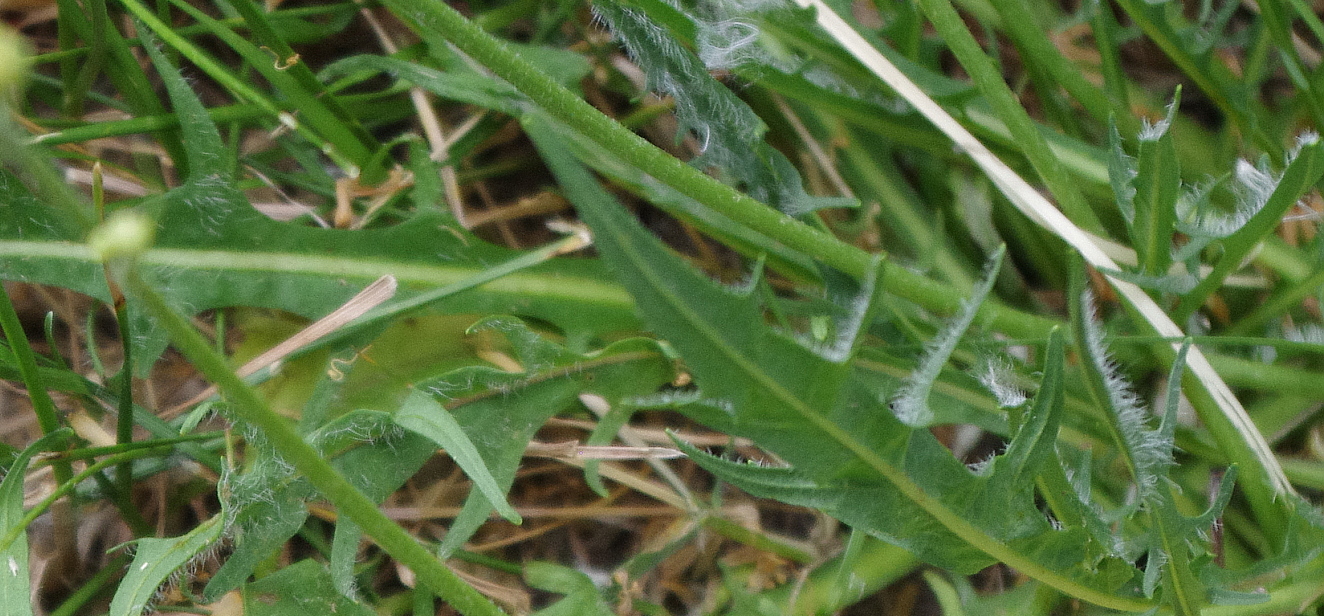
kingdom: Plantae
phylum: Tracheophyta
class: Magnoliopsida
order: Asterales
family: Asteraceae
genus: Scorzoneroides
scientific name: Scorzoneroides autumnalis
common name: Autumn hawkbit
